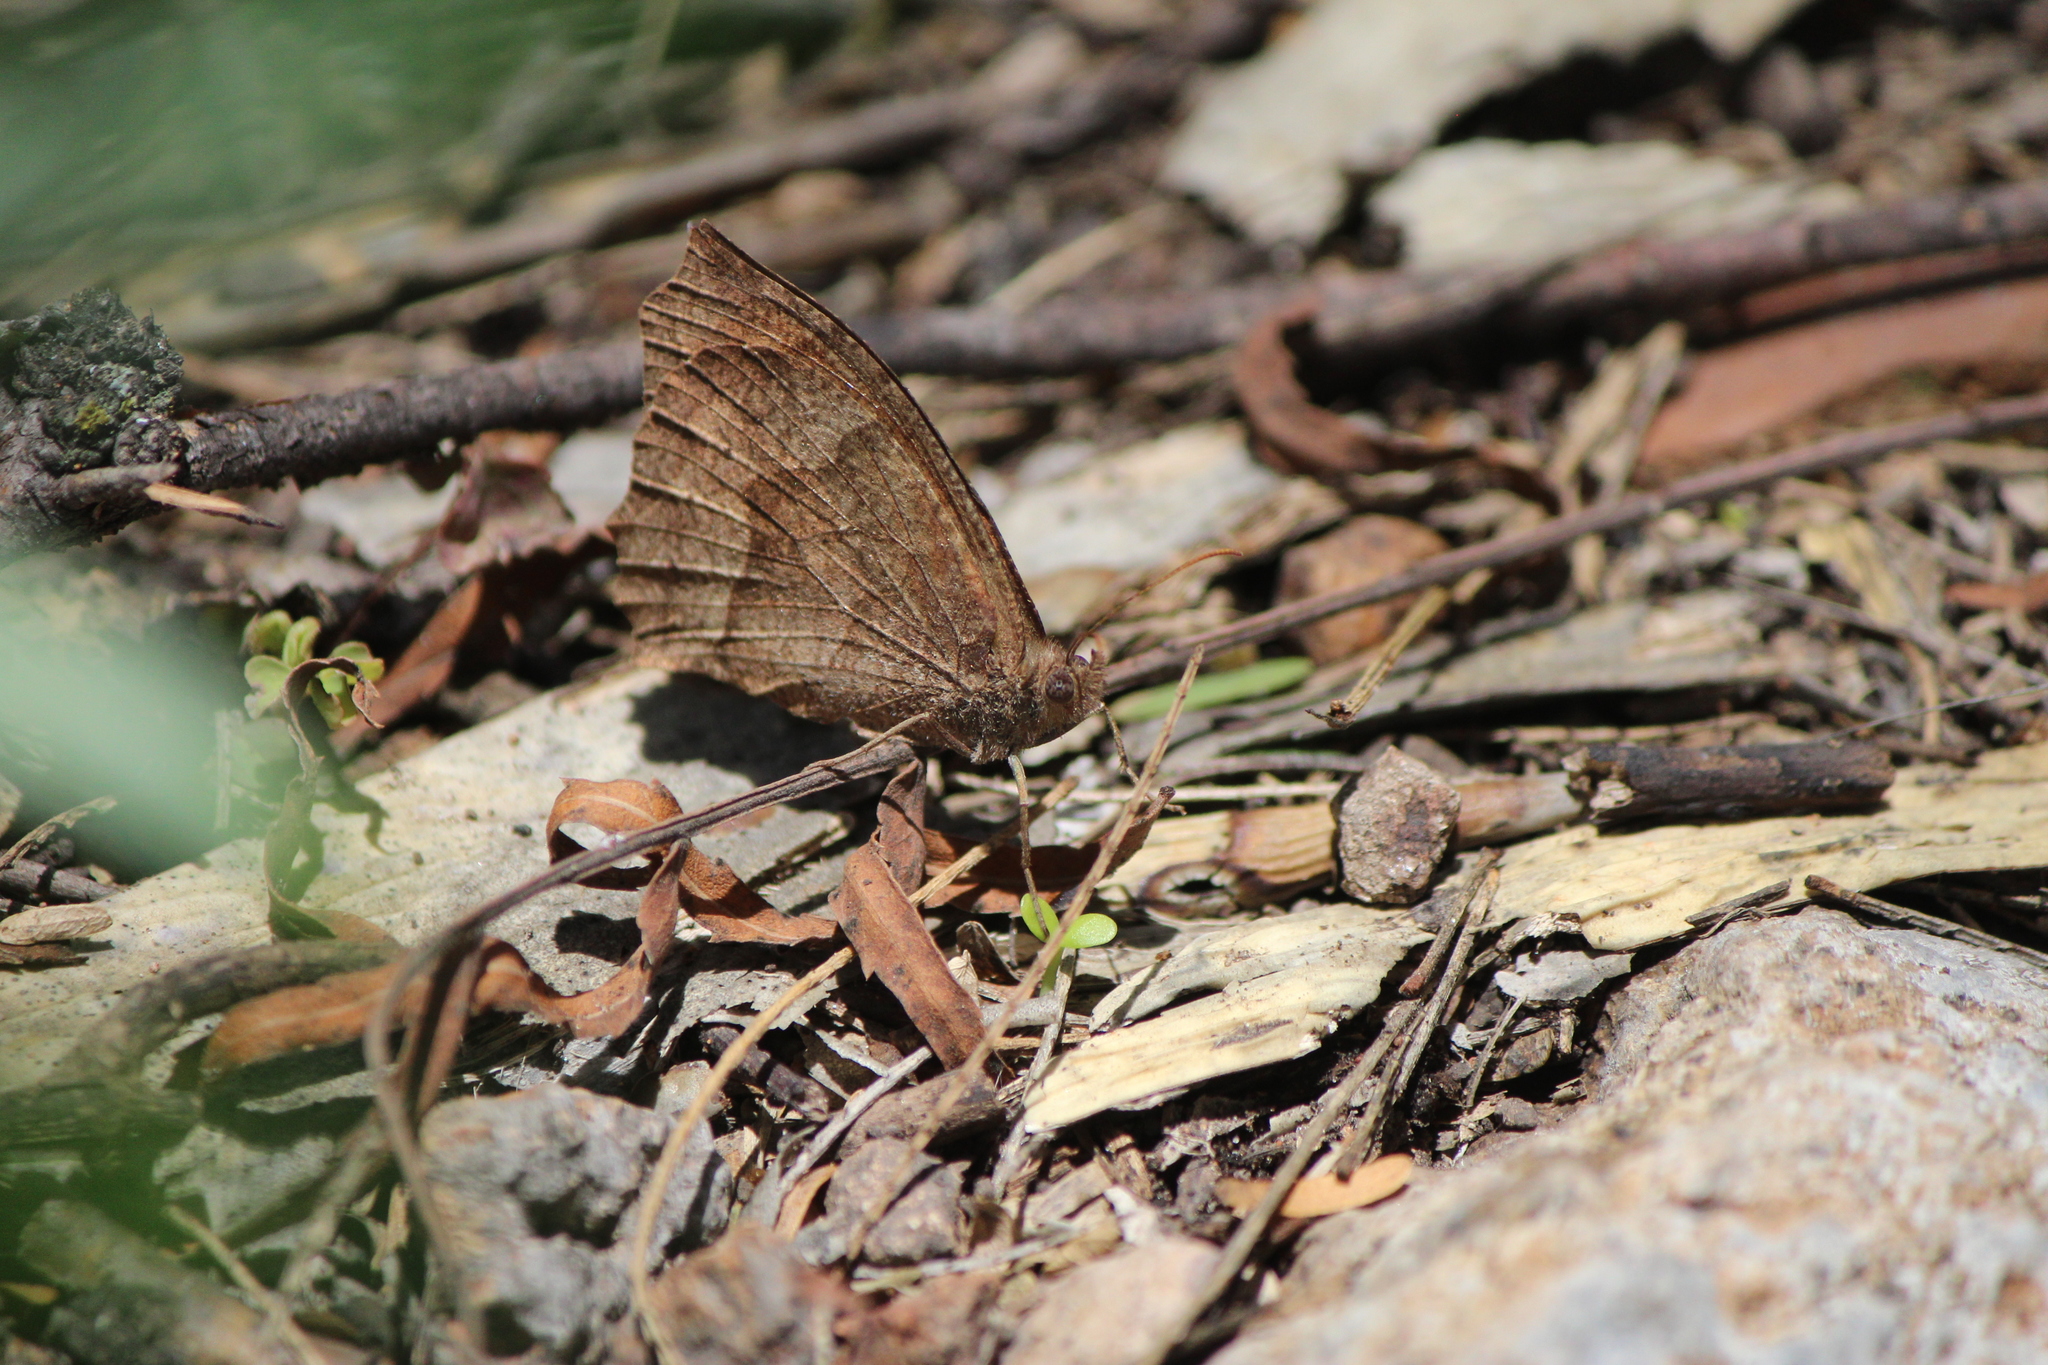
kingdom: Animalia
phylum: Arthropoda
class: Insecta
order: Lepidoptera
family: Nymphalidae
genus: Pindis
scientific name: Pindis squamistriga
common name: Variable satyr
